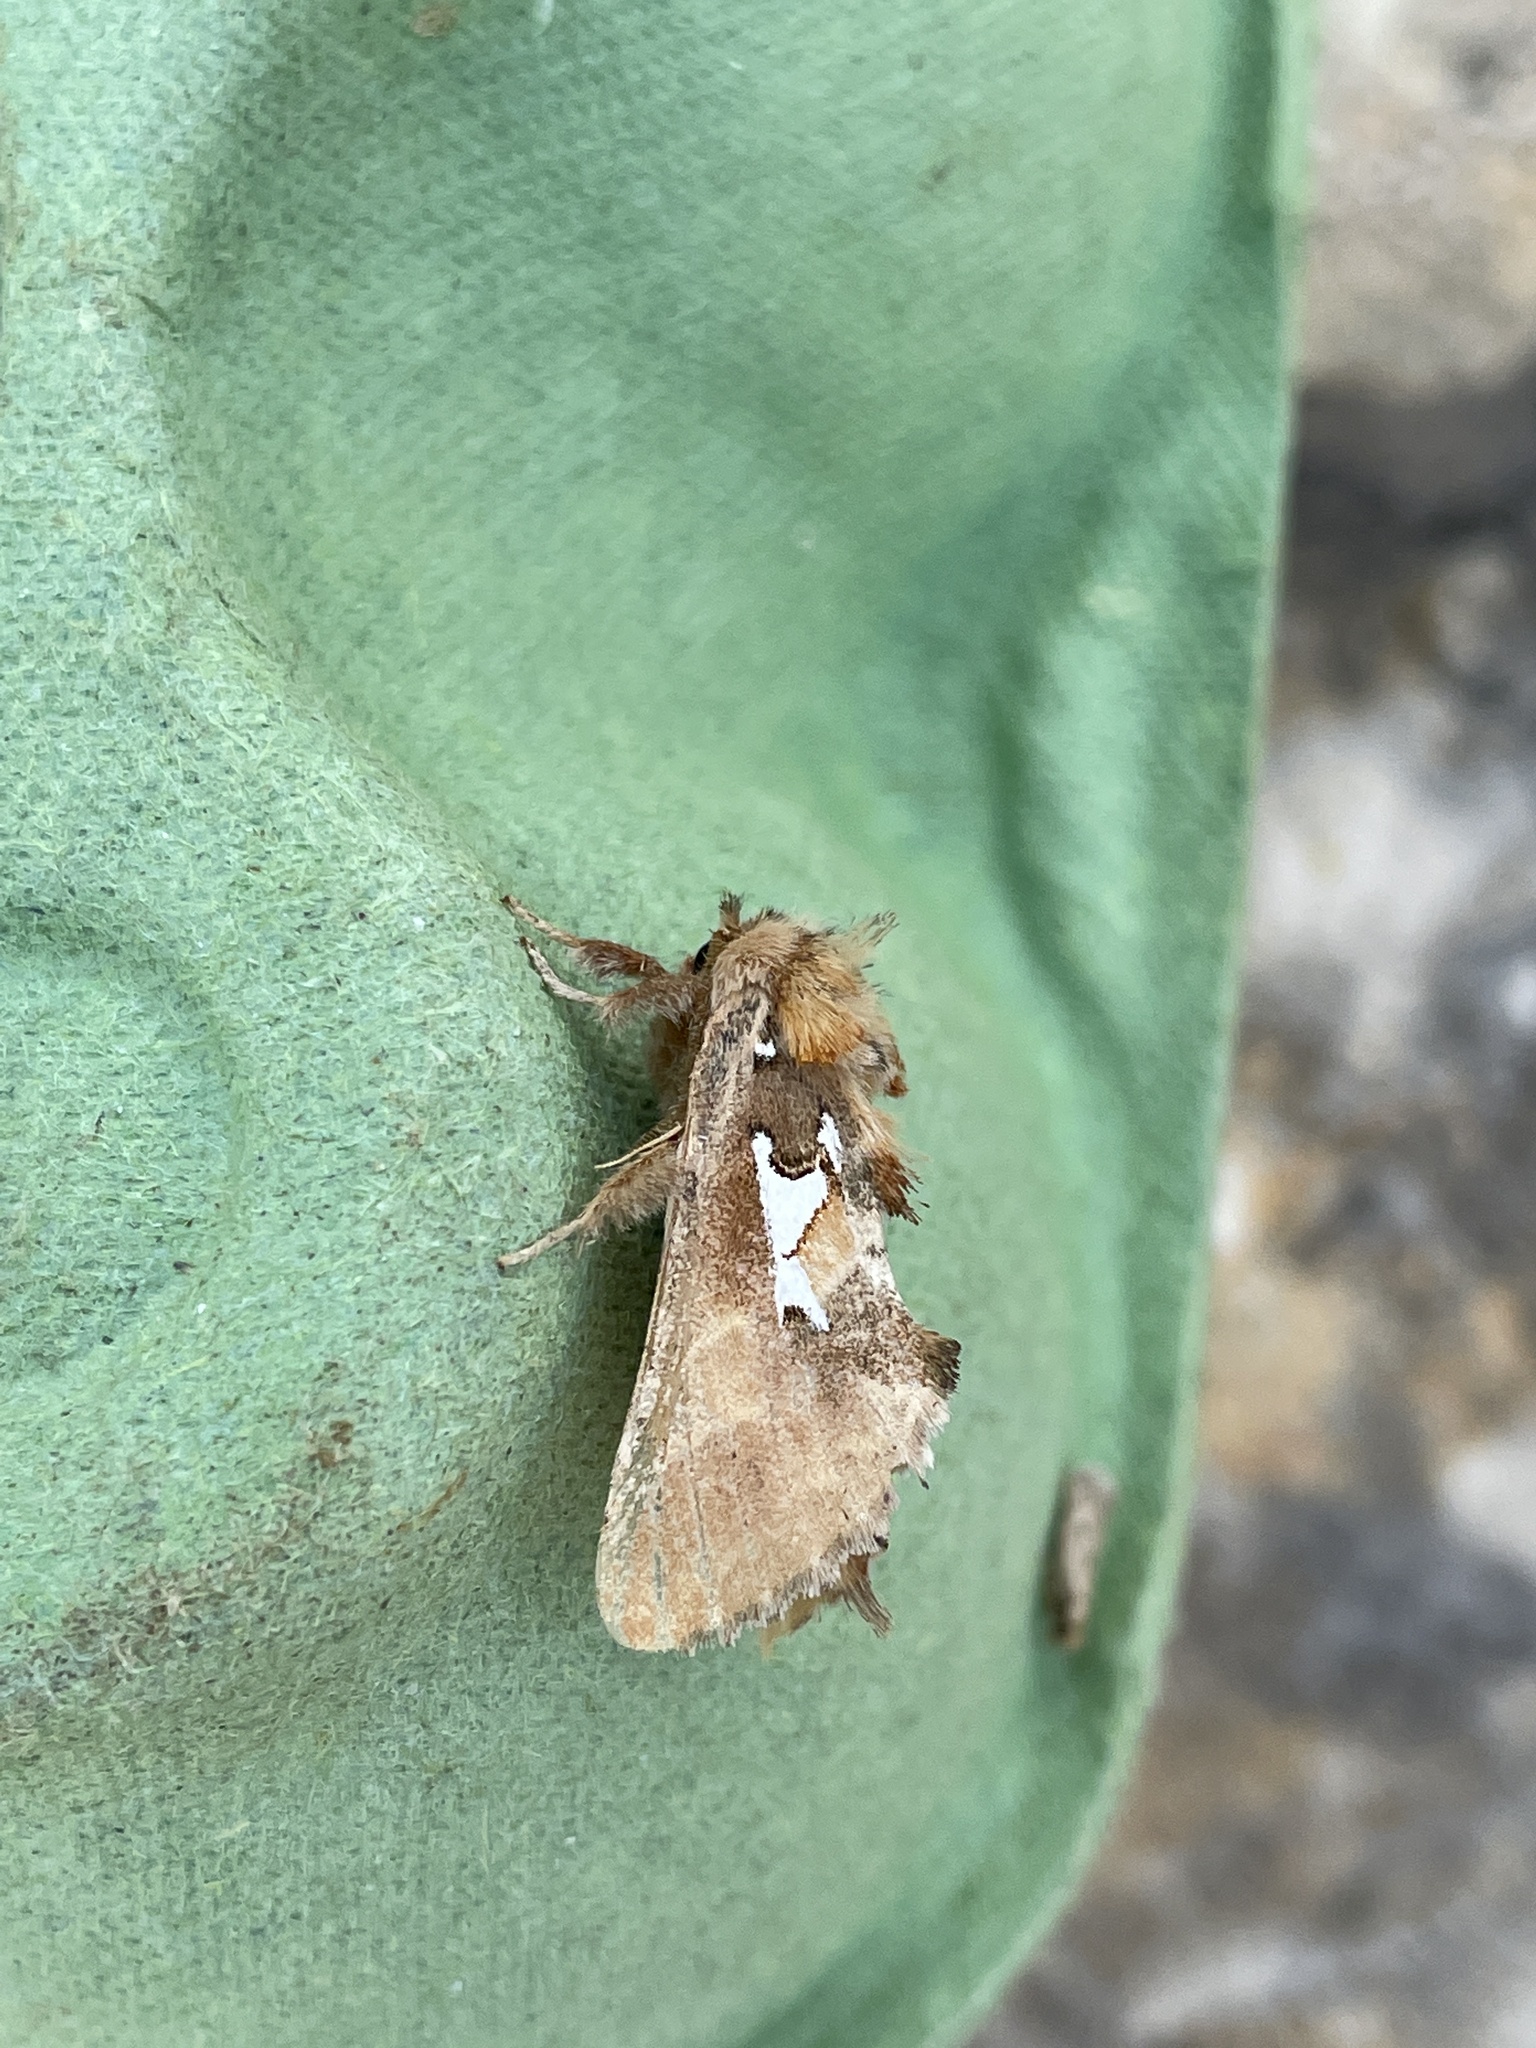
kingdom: Animalia
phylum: Arthropoda
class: Insecta
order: Lepidoptera
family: Notodontidae
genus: Spatalia
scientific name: Spatalia argentina
